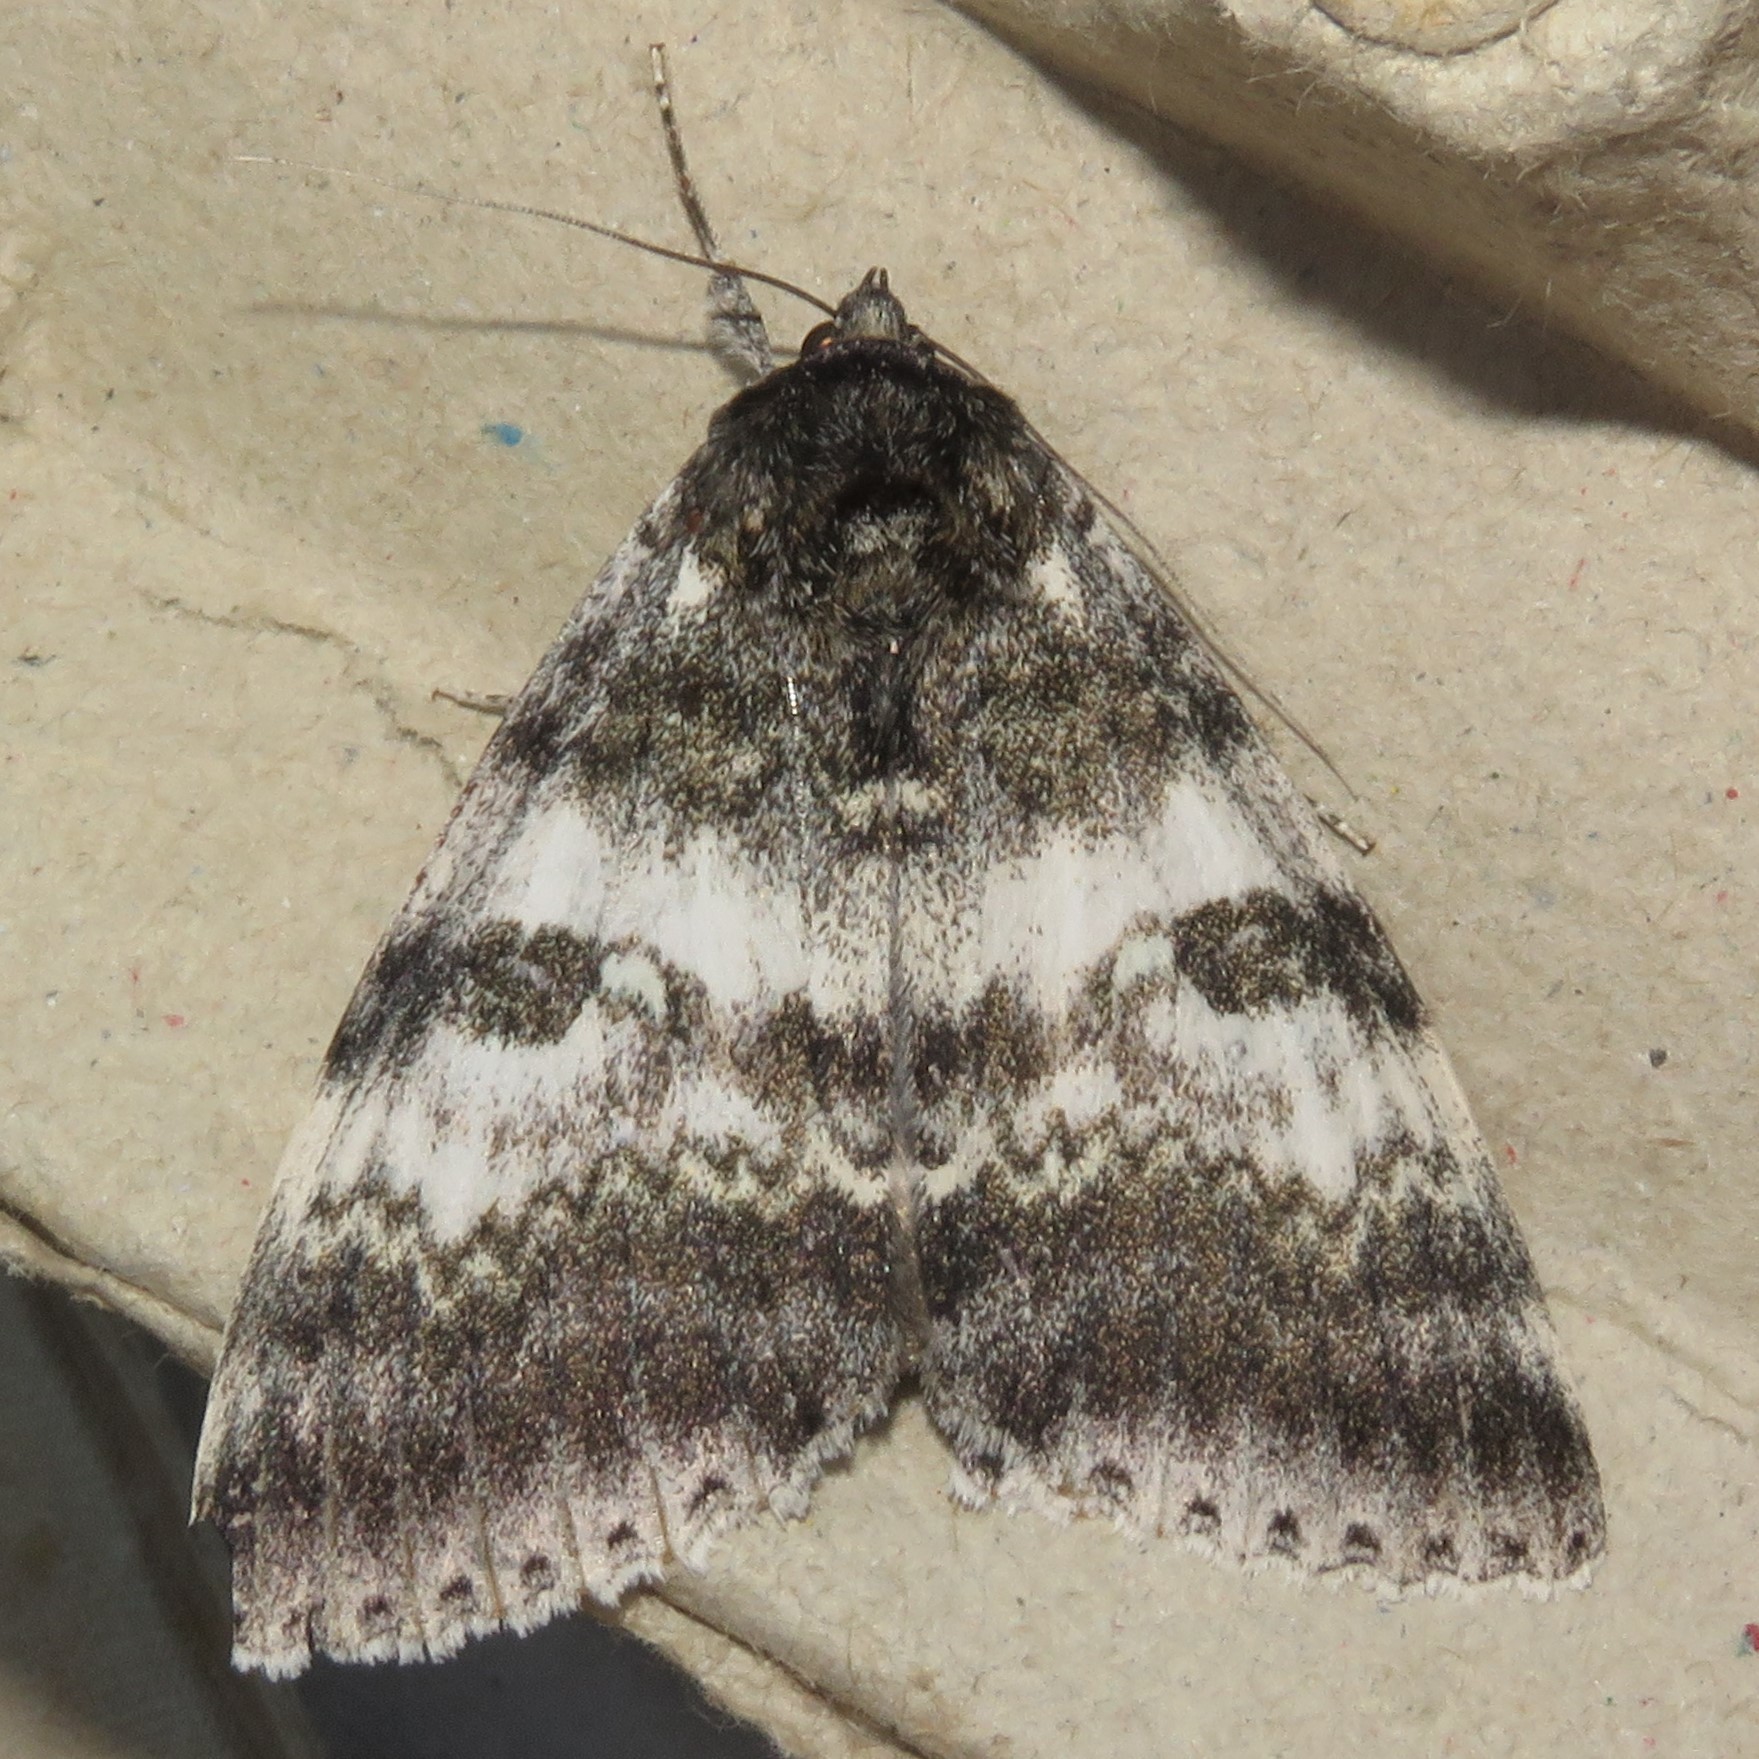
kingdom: Animalia
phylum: Arthropoda
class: Insecta
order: Lepidoptera
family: Erebidae
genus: Catocala
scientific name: Catocala relicta
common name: White underwing
